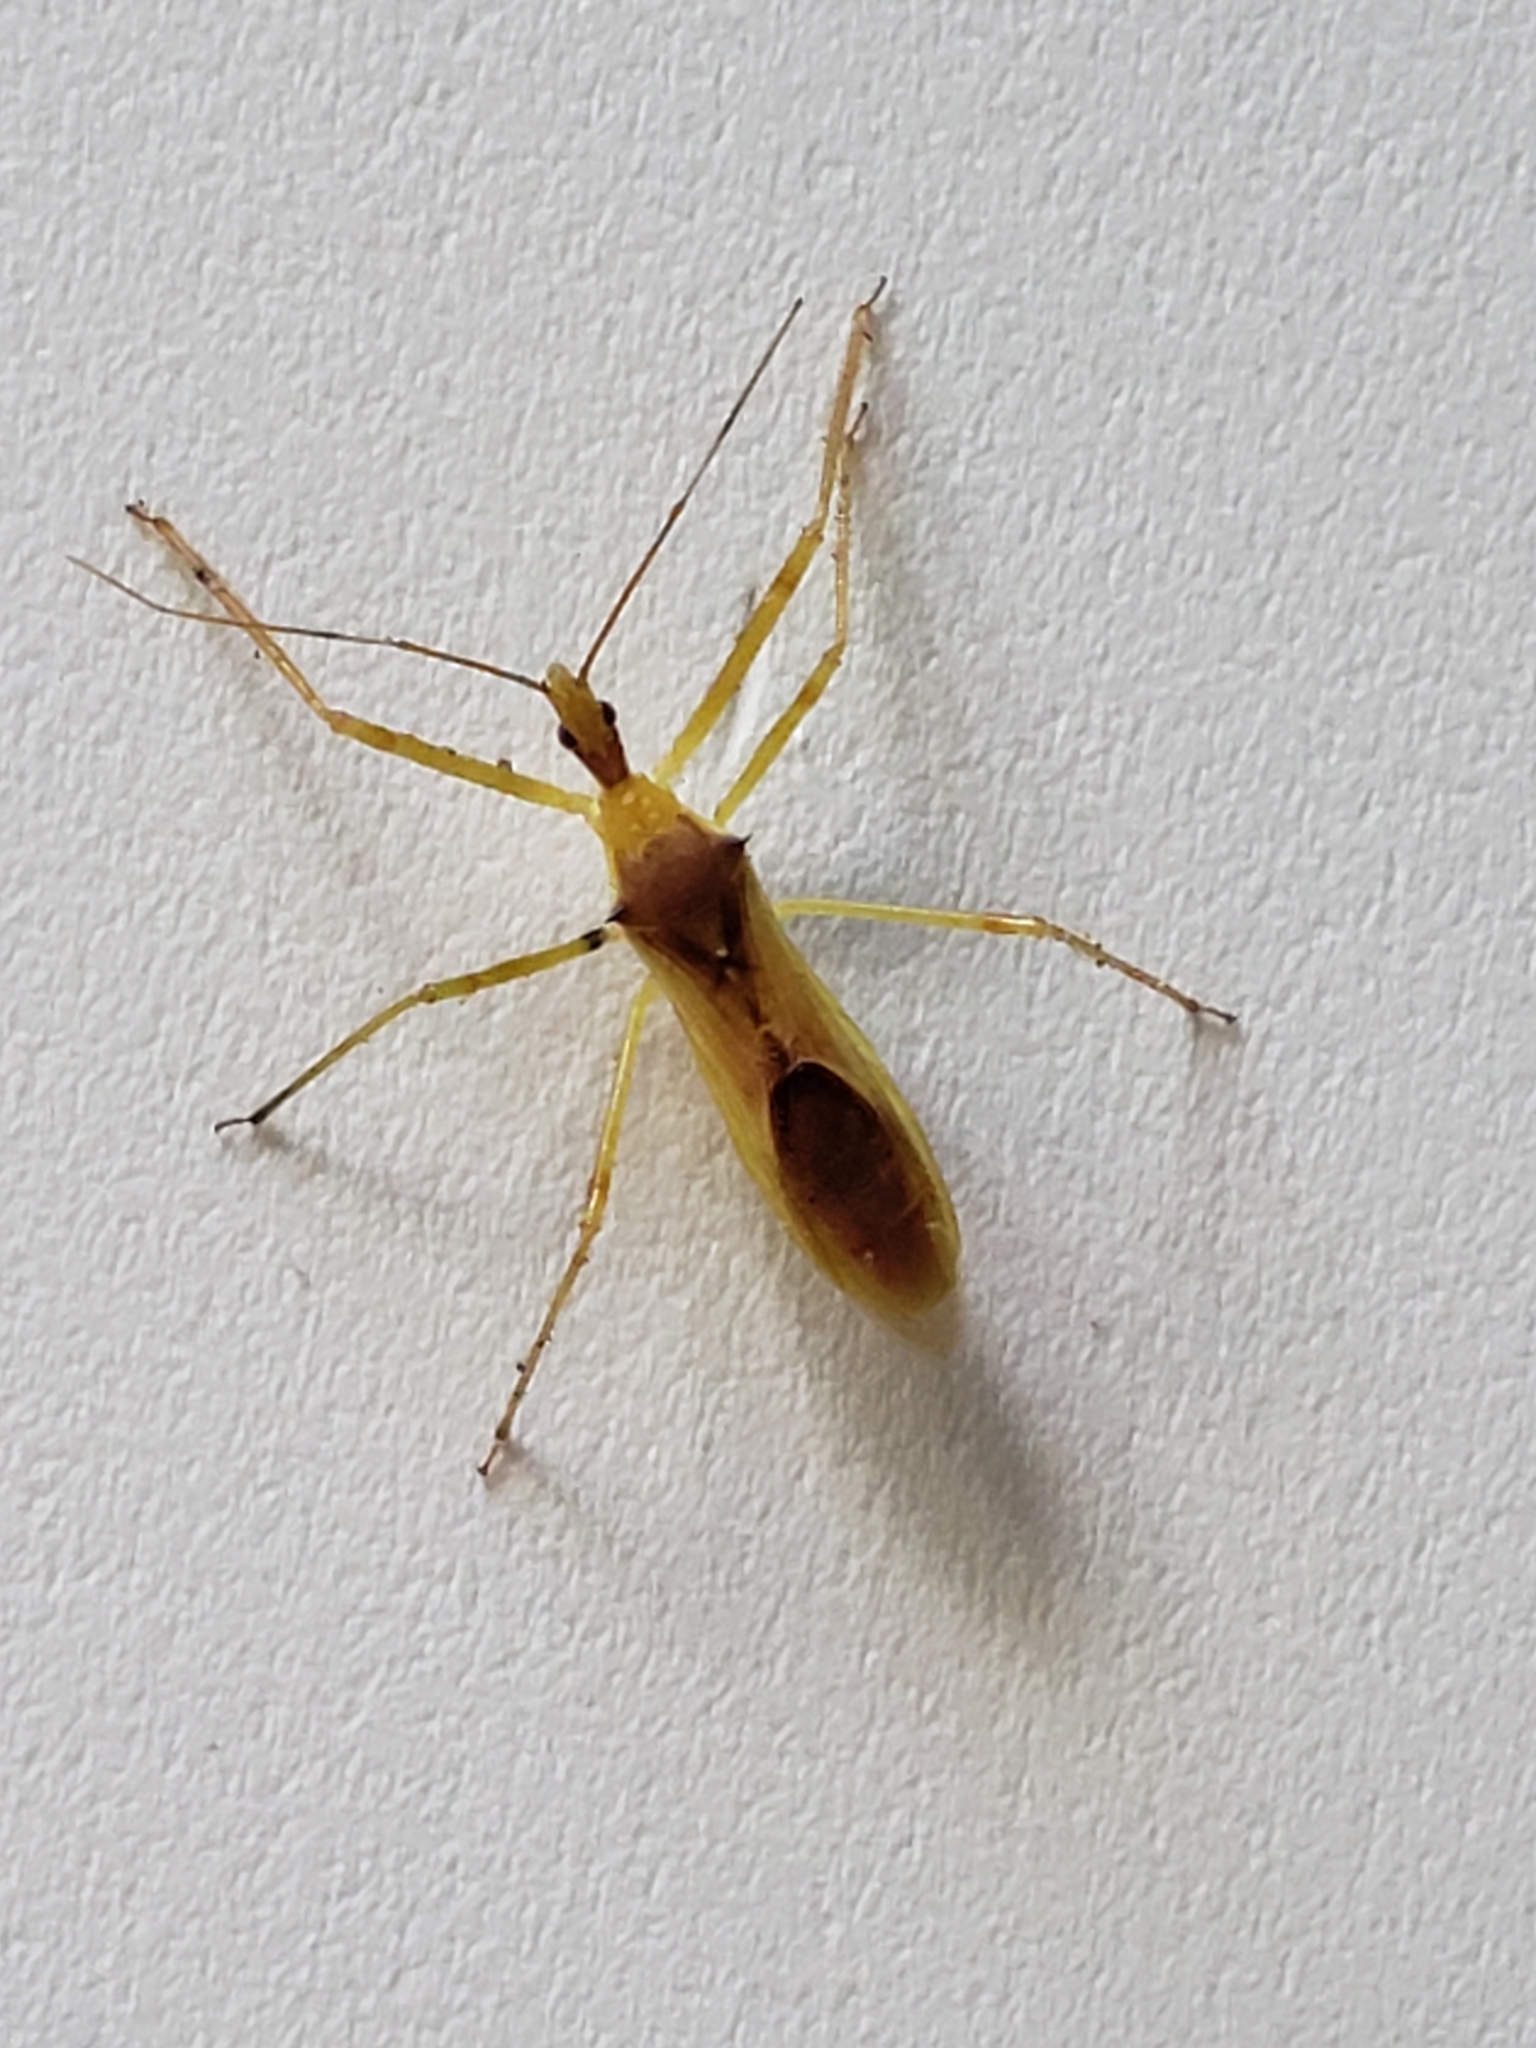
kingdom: Animalia
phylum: Arthropoda
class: Insecta
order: Hemiptera
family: Reduviidae
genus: Zelus
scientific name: Zelus luridus
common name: Pale green assassin bug
